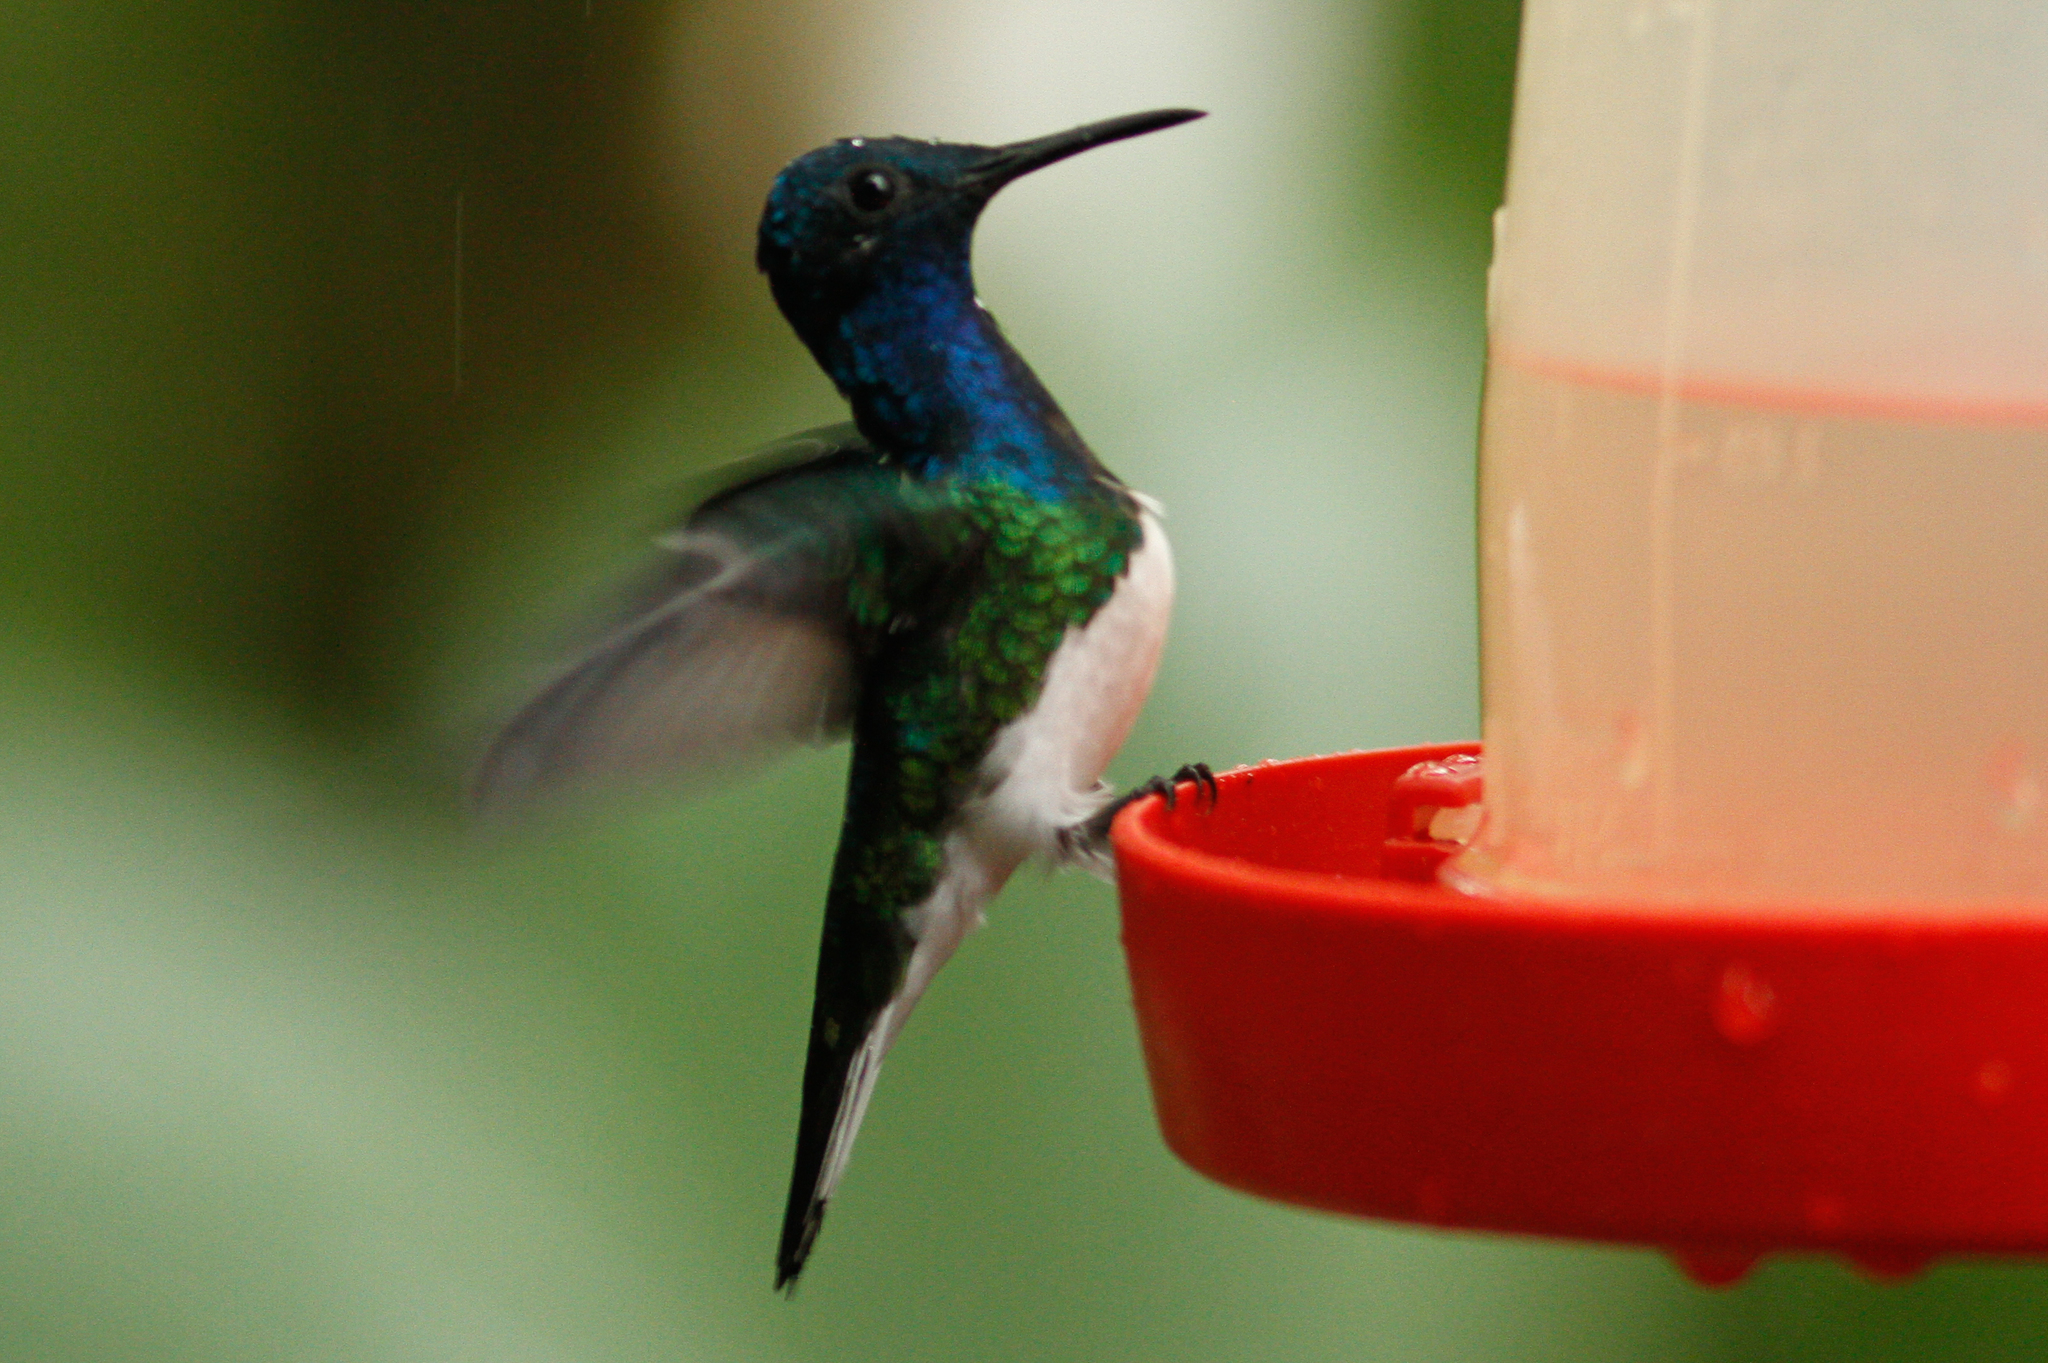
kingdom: Animalia
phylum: Chordata
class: Aves
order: Apodiformes
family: Trochilidae
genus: Florisuga
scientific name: Florisuga mellivora
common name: White-necked jacobin
